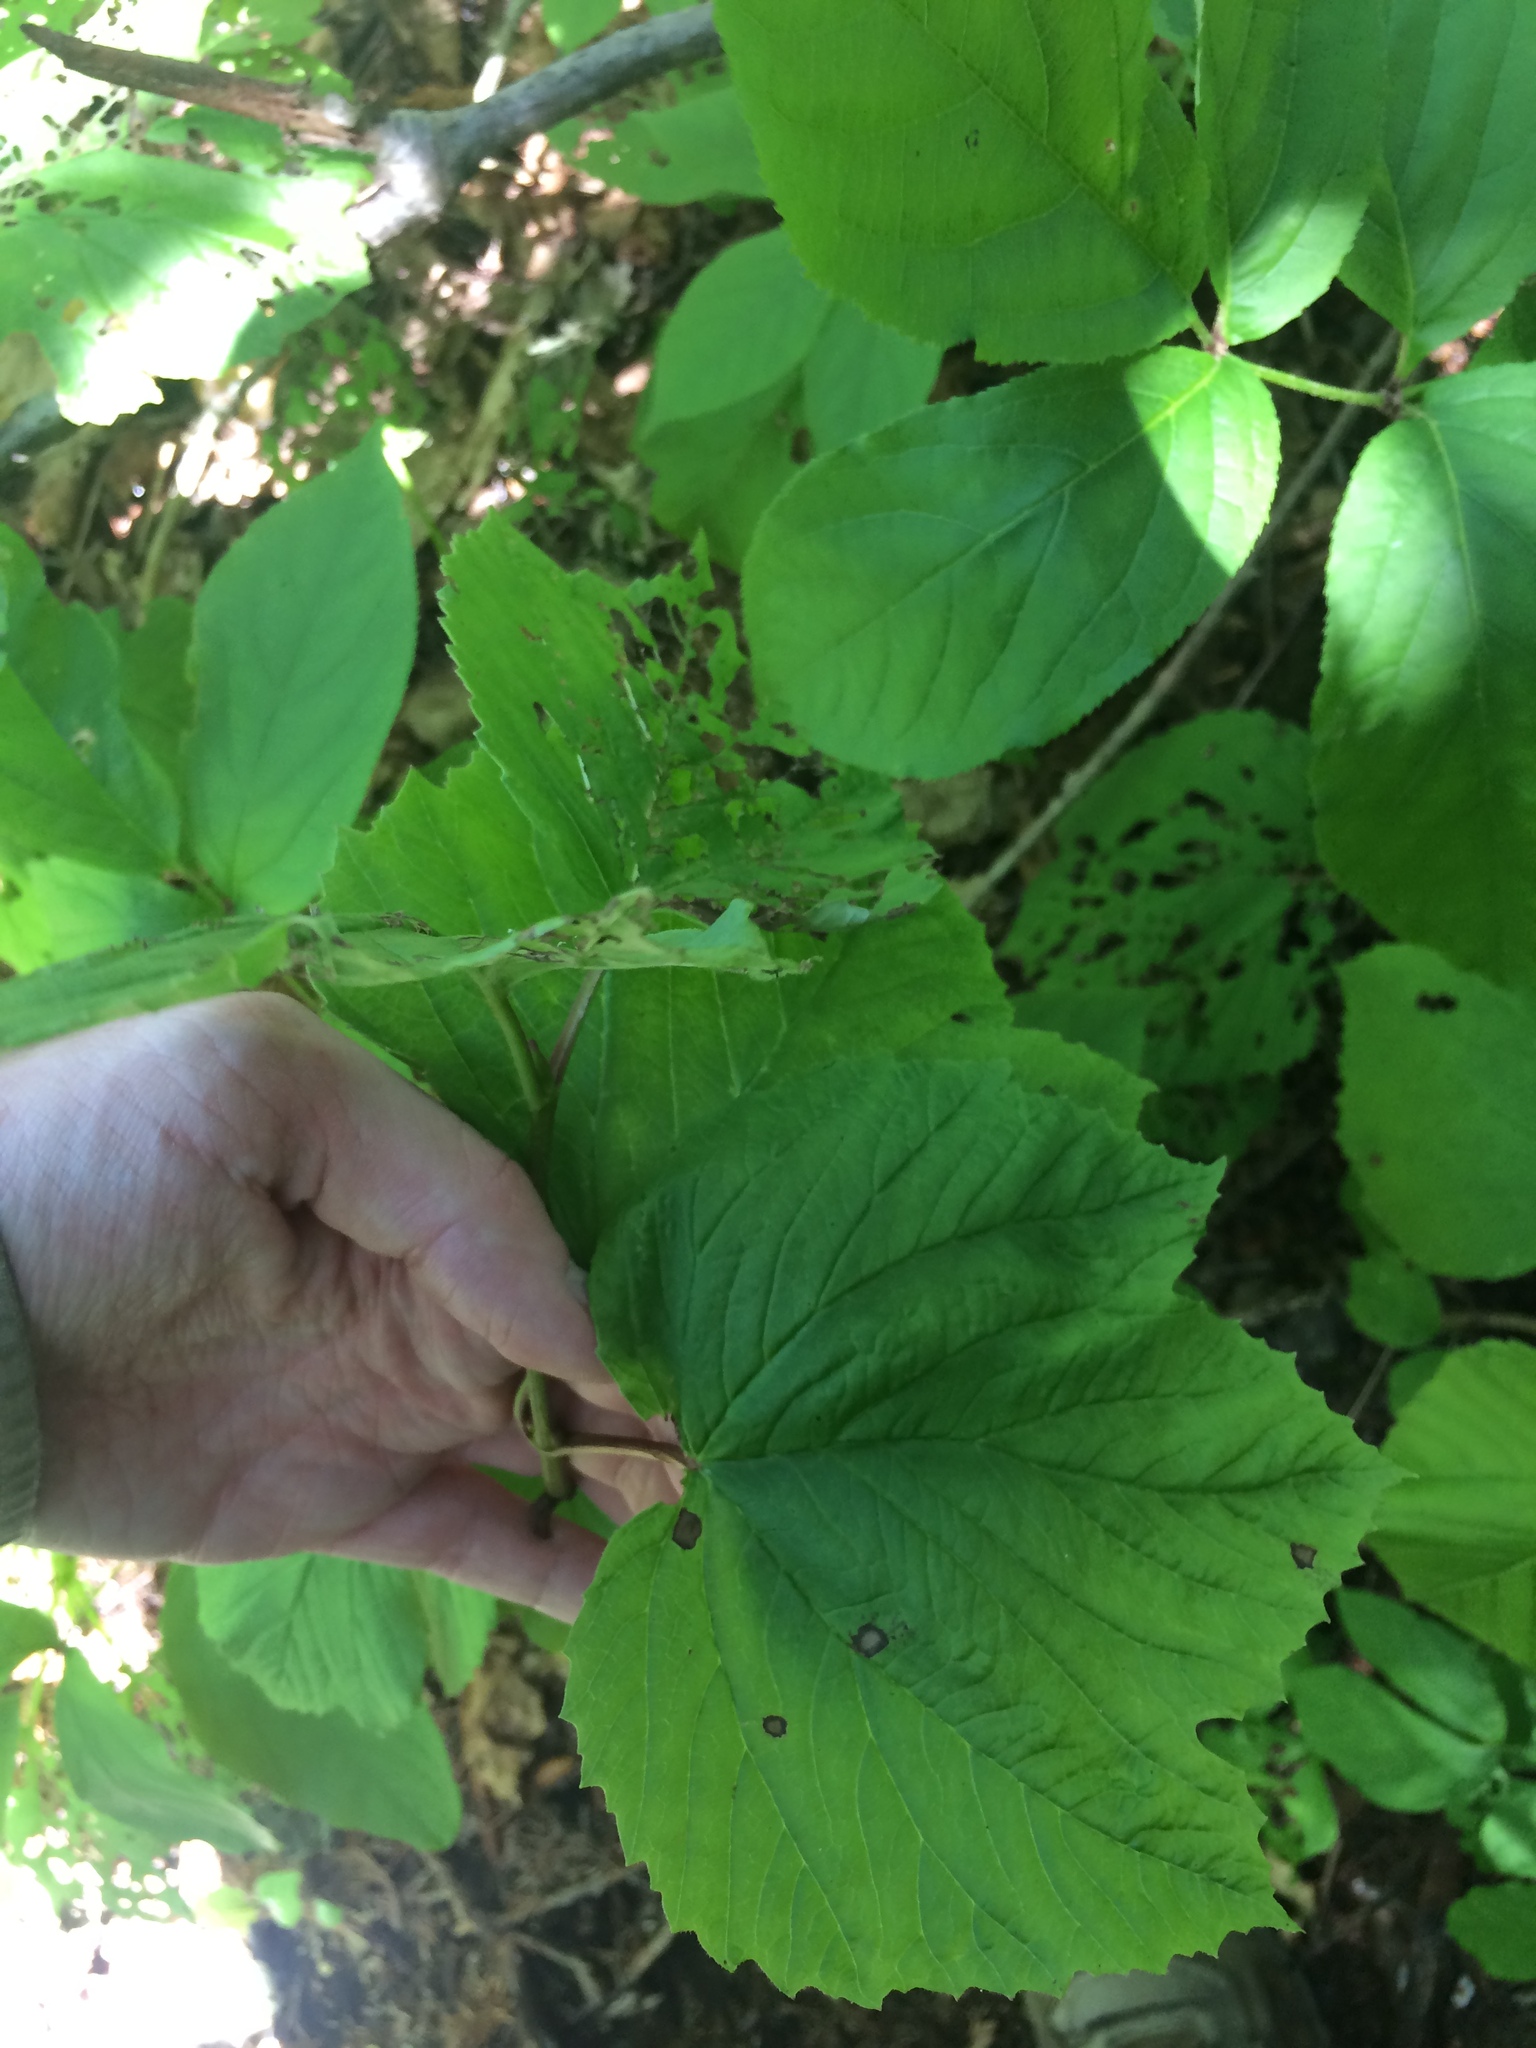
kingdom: Plantae
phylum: Tracheophyta
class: Magnoliopsida
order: Dipsacales
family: Viburnaceae
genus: Viburnum
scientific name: Viburnum edule
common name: Mooseberry
